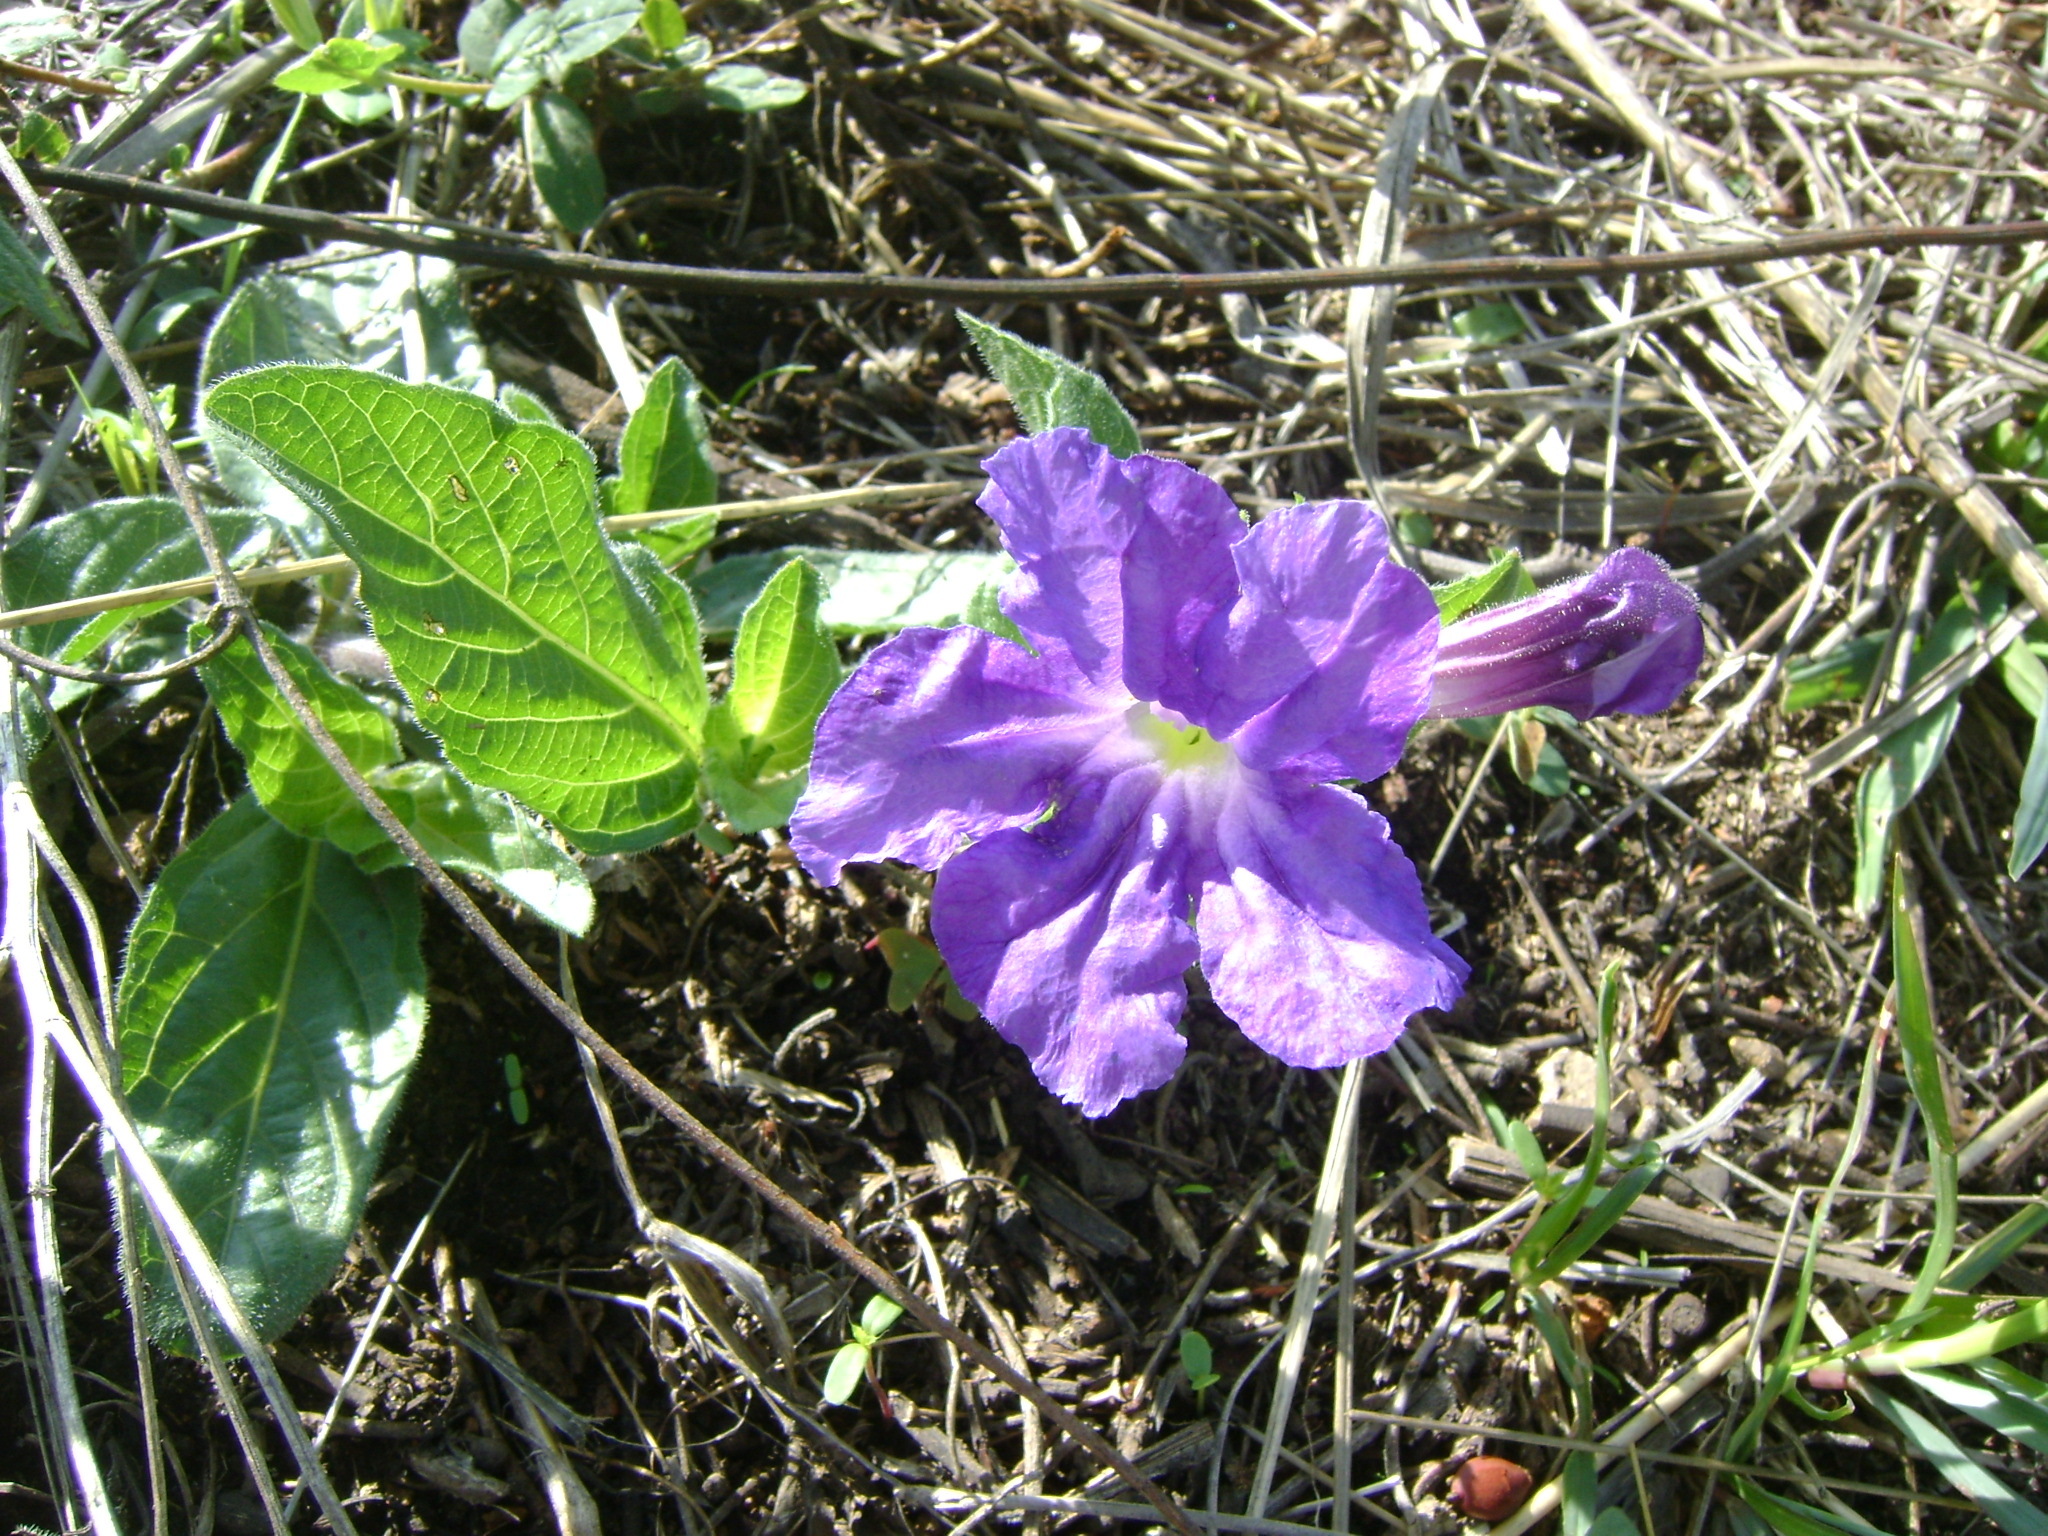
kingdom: Plantae
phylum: Tracheophyta
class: Magnoliopsida
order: Lamiales
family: Acanthaceae
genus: Ruellia
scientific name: Ruellia lactea
